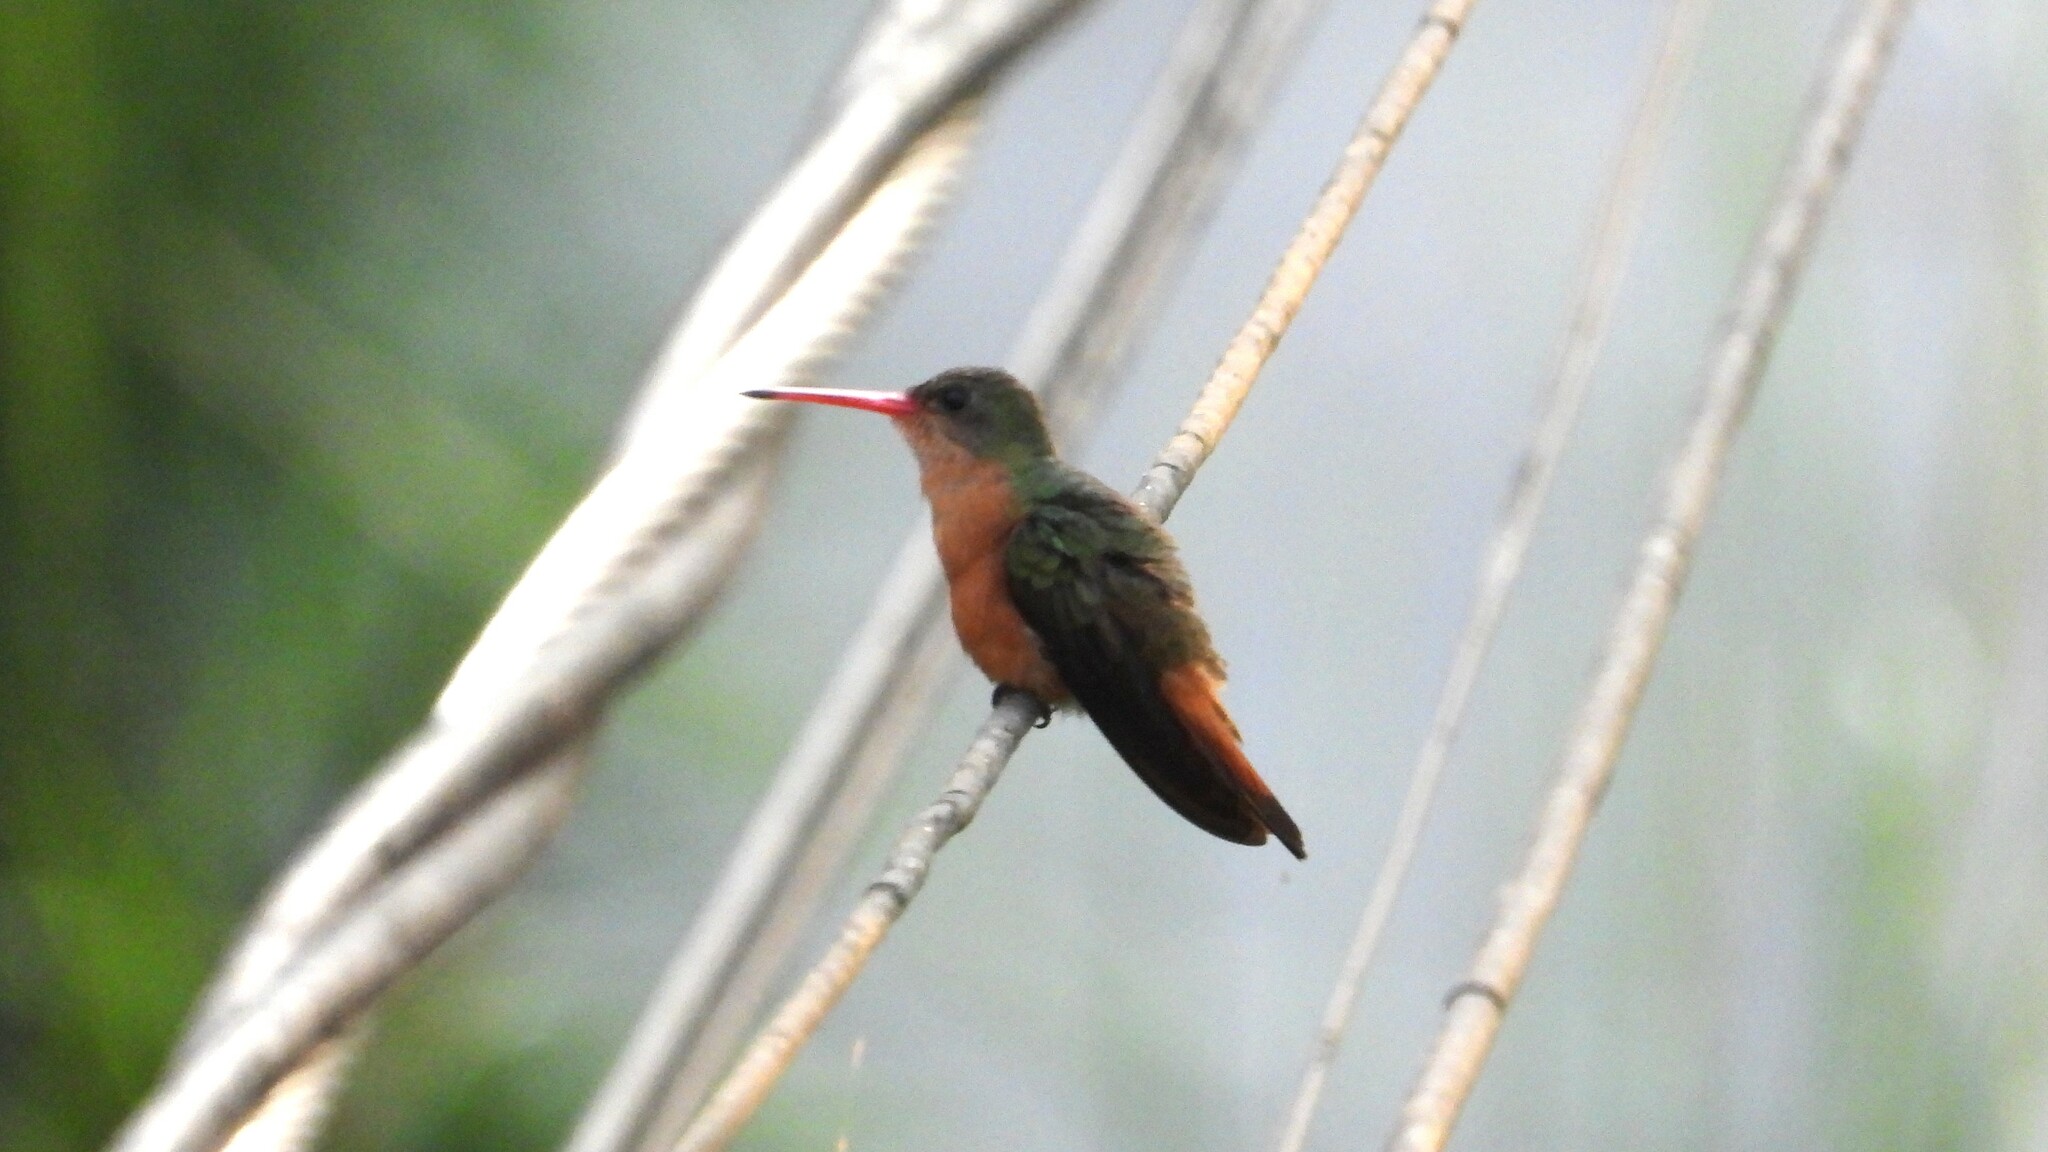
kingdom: Animalia
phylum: Chordata
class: Aves
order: Apodiformes
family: Trochilidae
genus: Amazilia
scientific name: Amazilia rutila
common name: Cinnamon hummingbird
